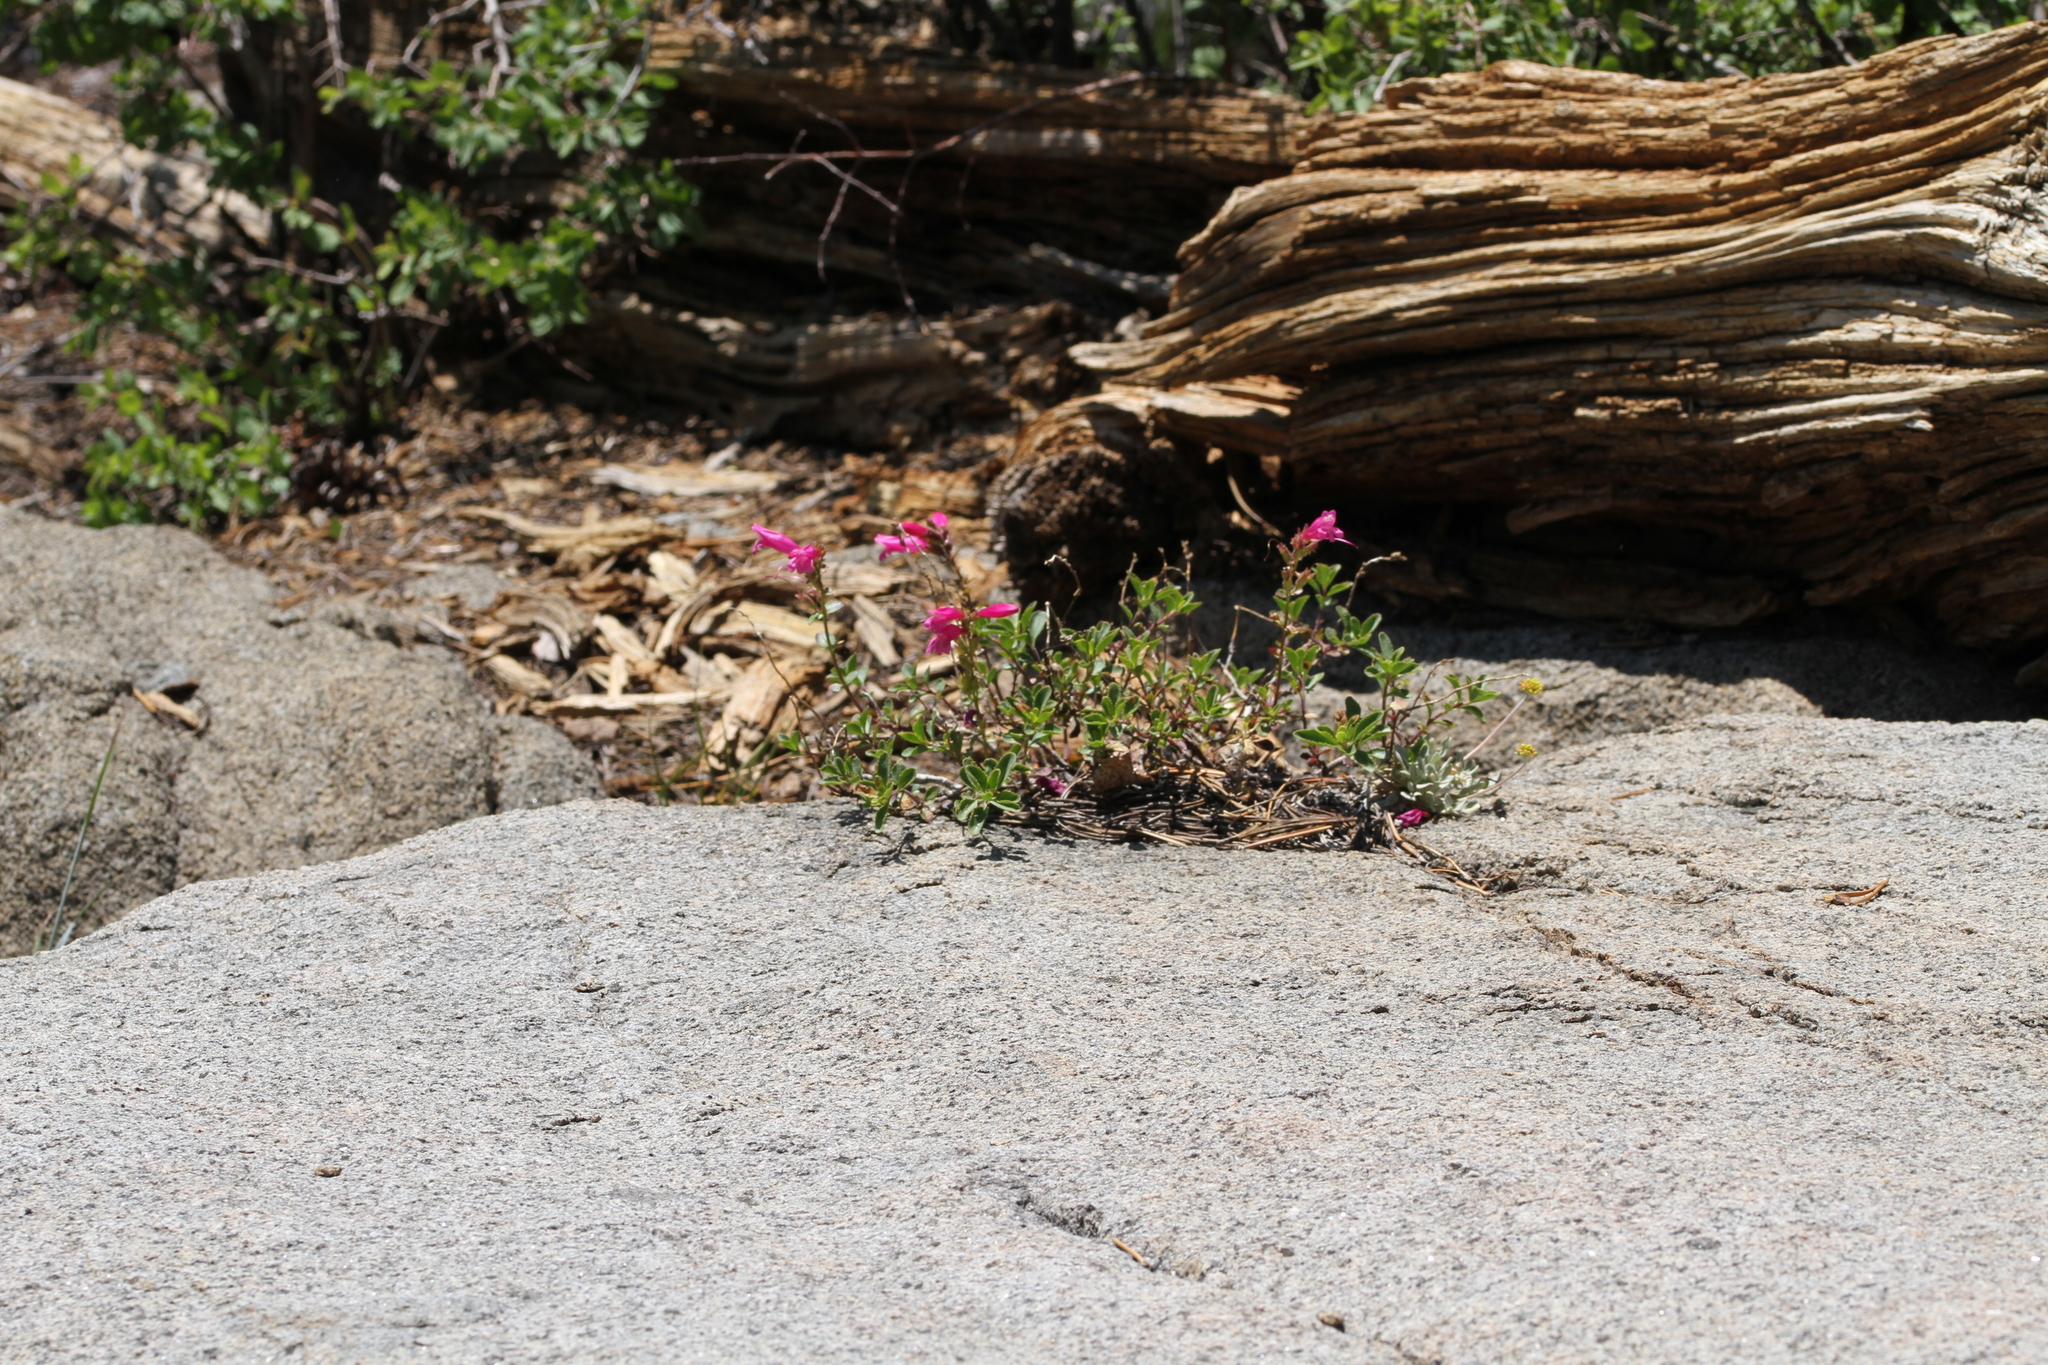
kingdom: Plantae
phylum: Tracheophyta
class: Magnoliopsida
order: Lamiales
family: Plantaginaceae
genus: Penstemon
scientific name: Penstemon newberryi
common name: Mountain-pride
